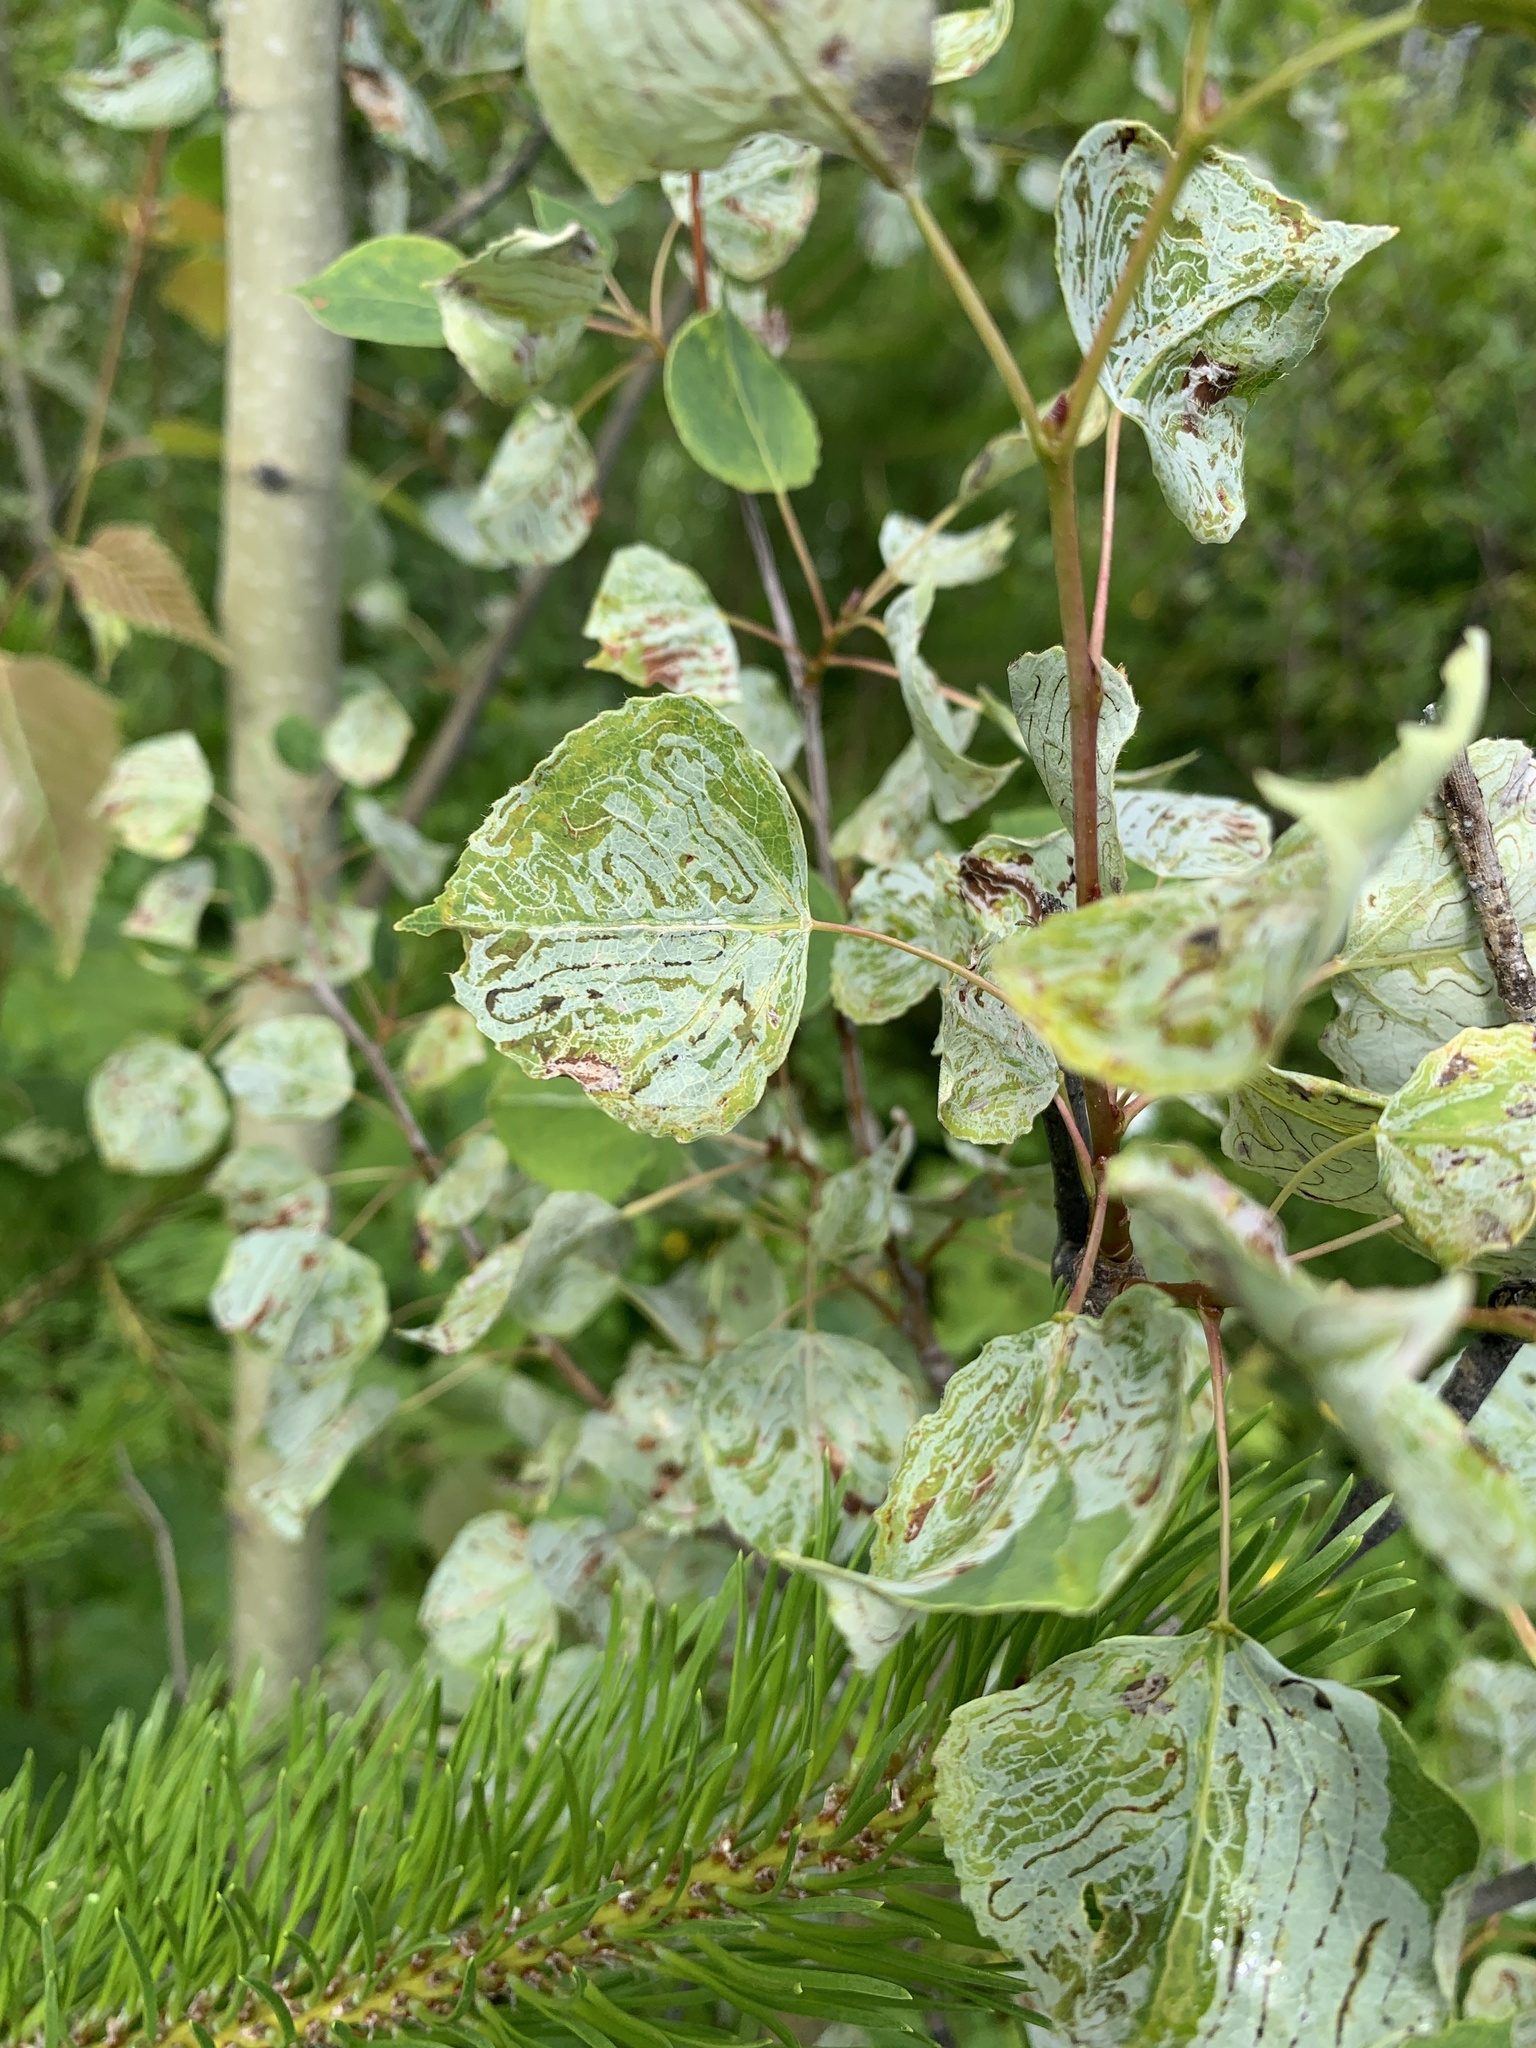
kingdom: Animalia
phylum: Arthropoda
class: Insecta
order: Lepidoptera
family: Gracillariidae
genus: Phyllocnistis
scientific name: Phyllocnistis populiella
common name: Aspen serpentine leafminer moth
